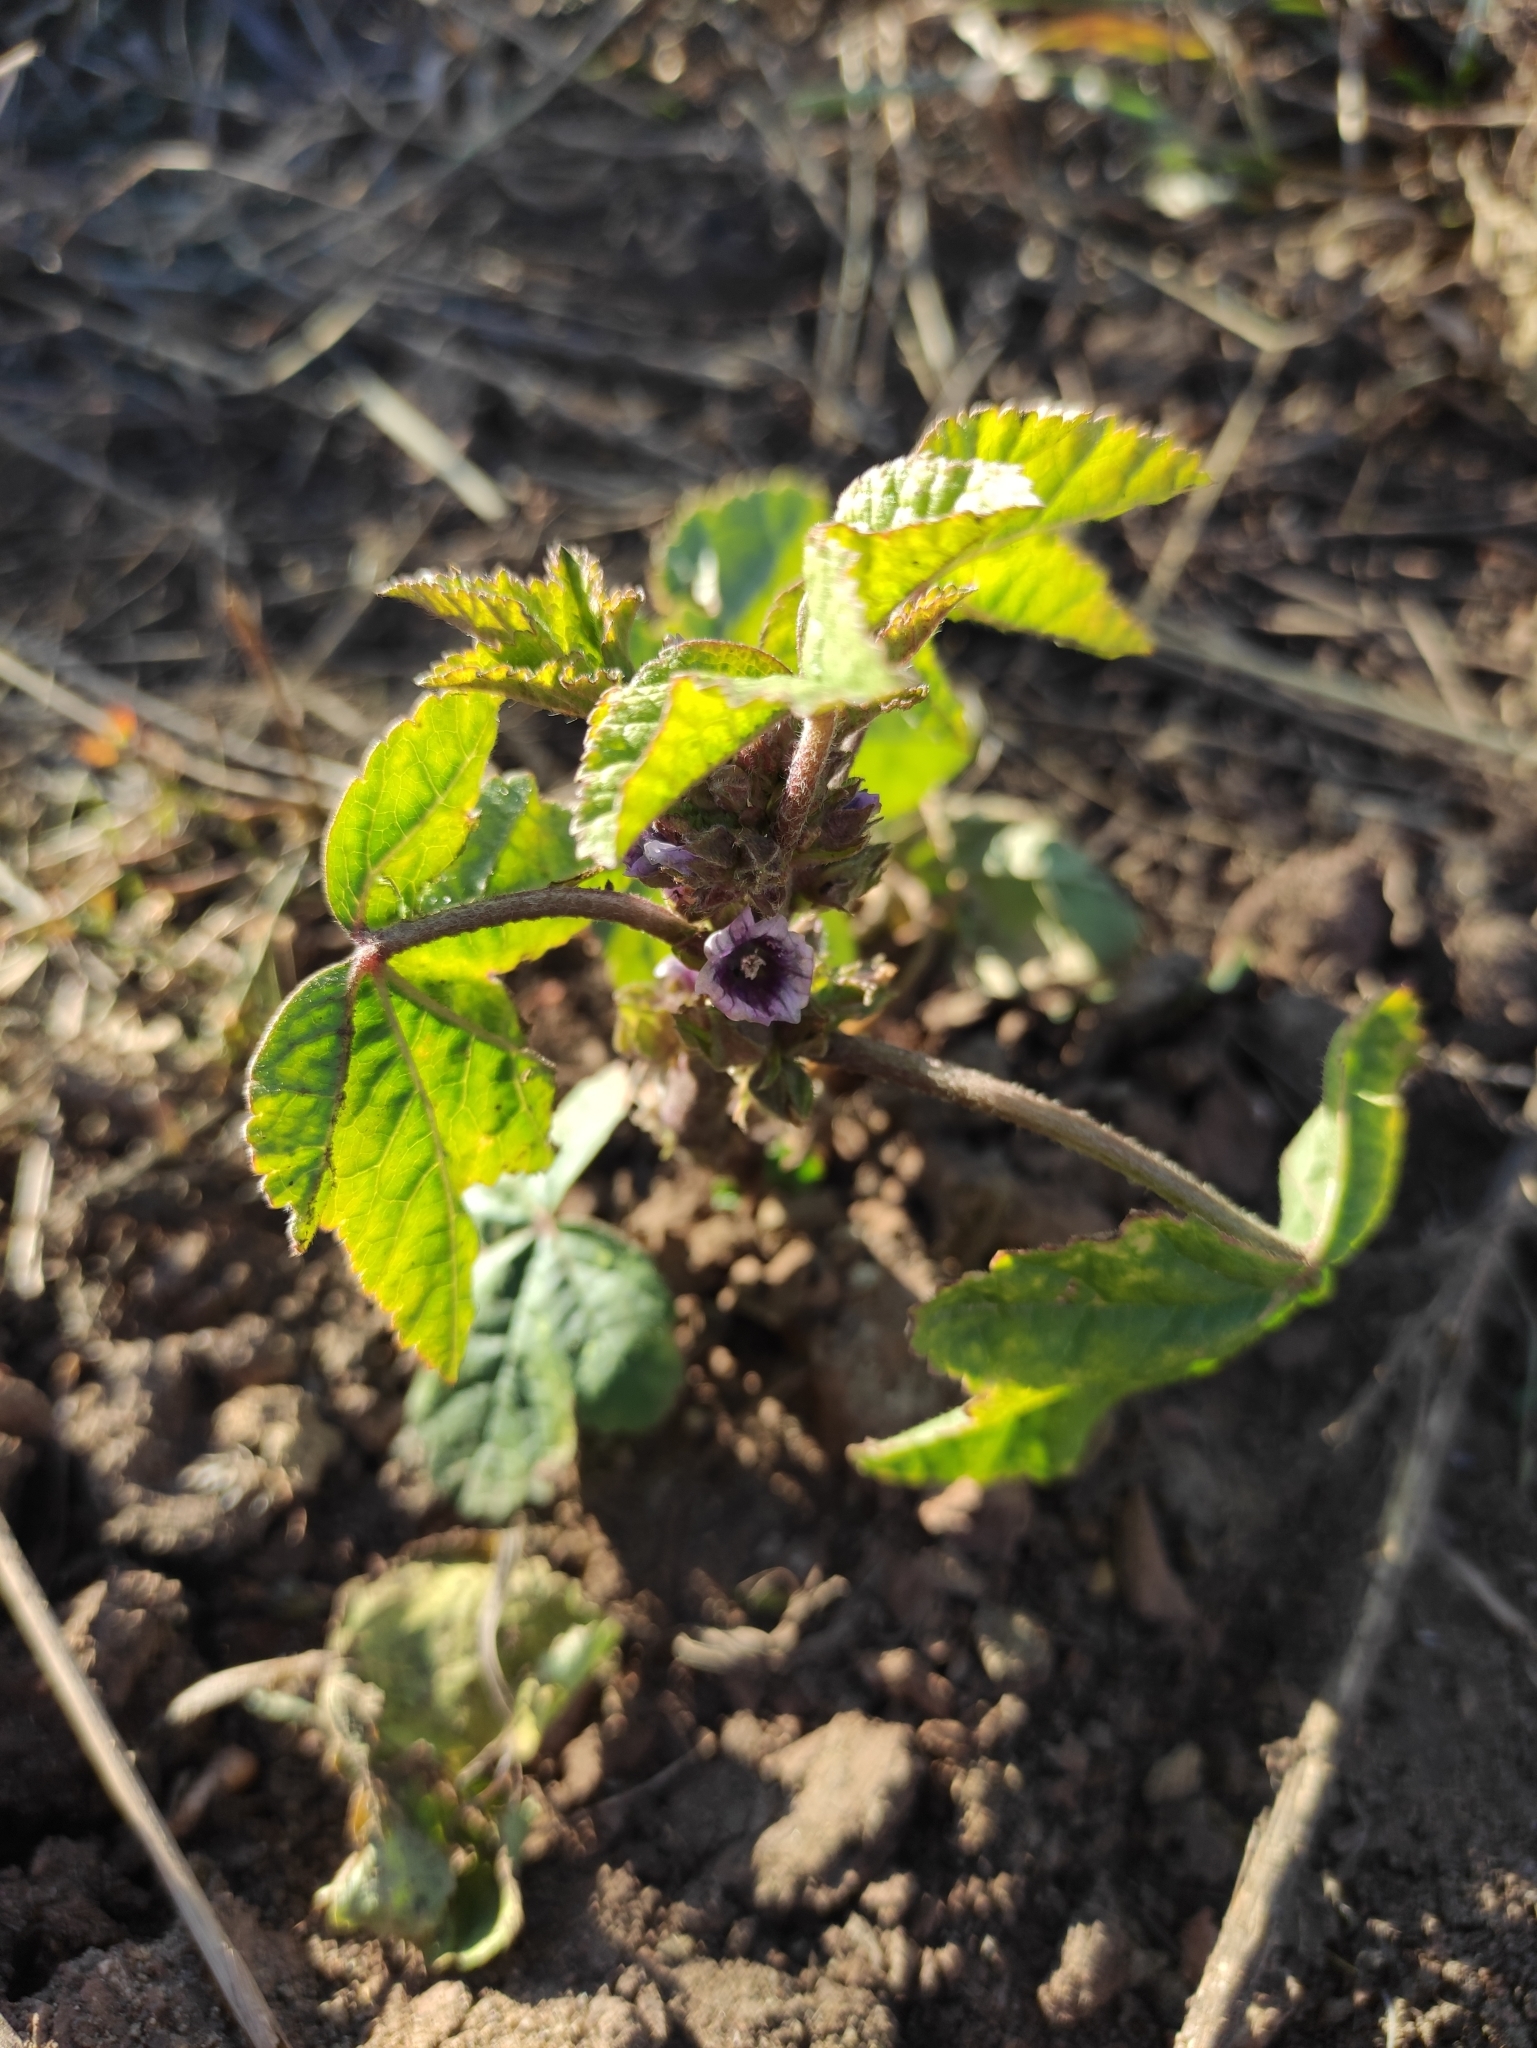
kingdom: Plantae
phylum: Tracheophyta
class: Magnoliopsida
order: Malvales
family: Malvaceae
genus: Malva
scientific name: Malva verticillata
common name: Chinese mallow
